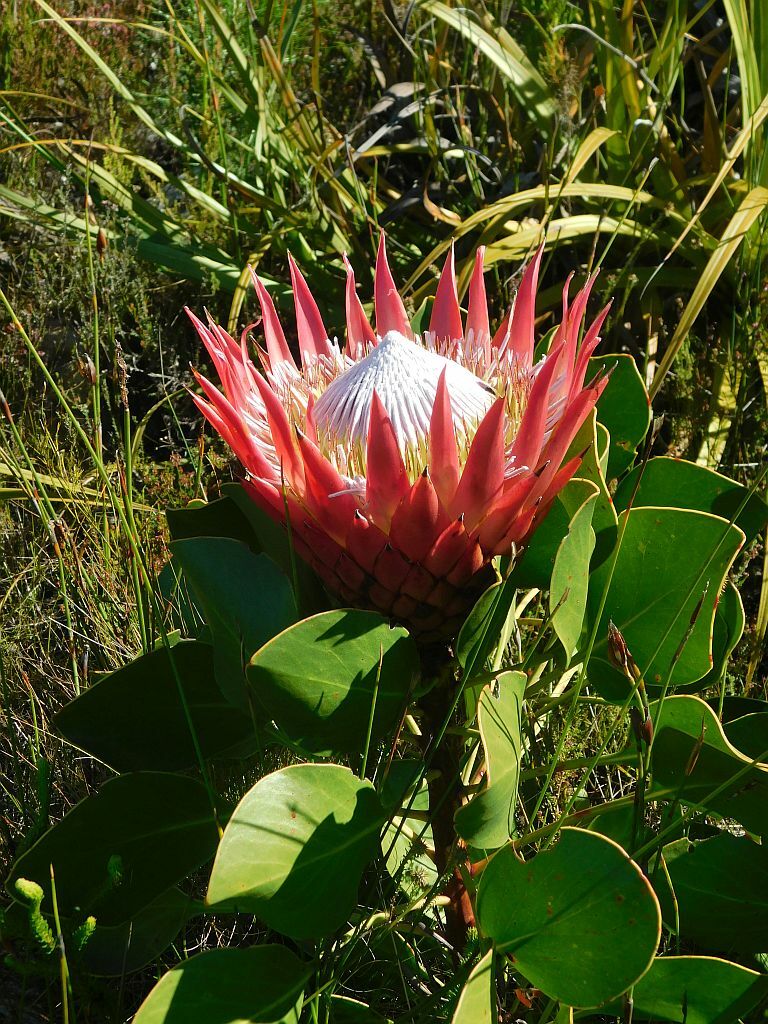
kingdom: Plantae
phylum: Tracheophyta
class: Magnoliopsida
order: Proteales
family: Proteaceae
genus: Protea
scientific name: Protea cynaroides
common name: King protea
